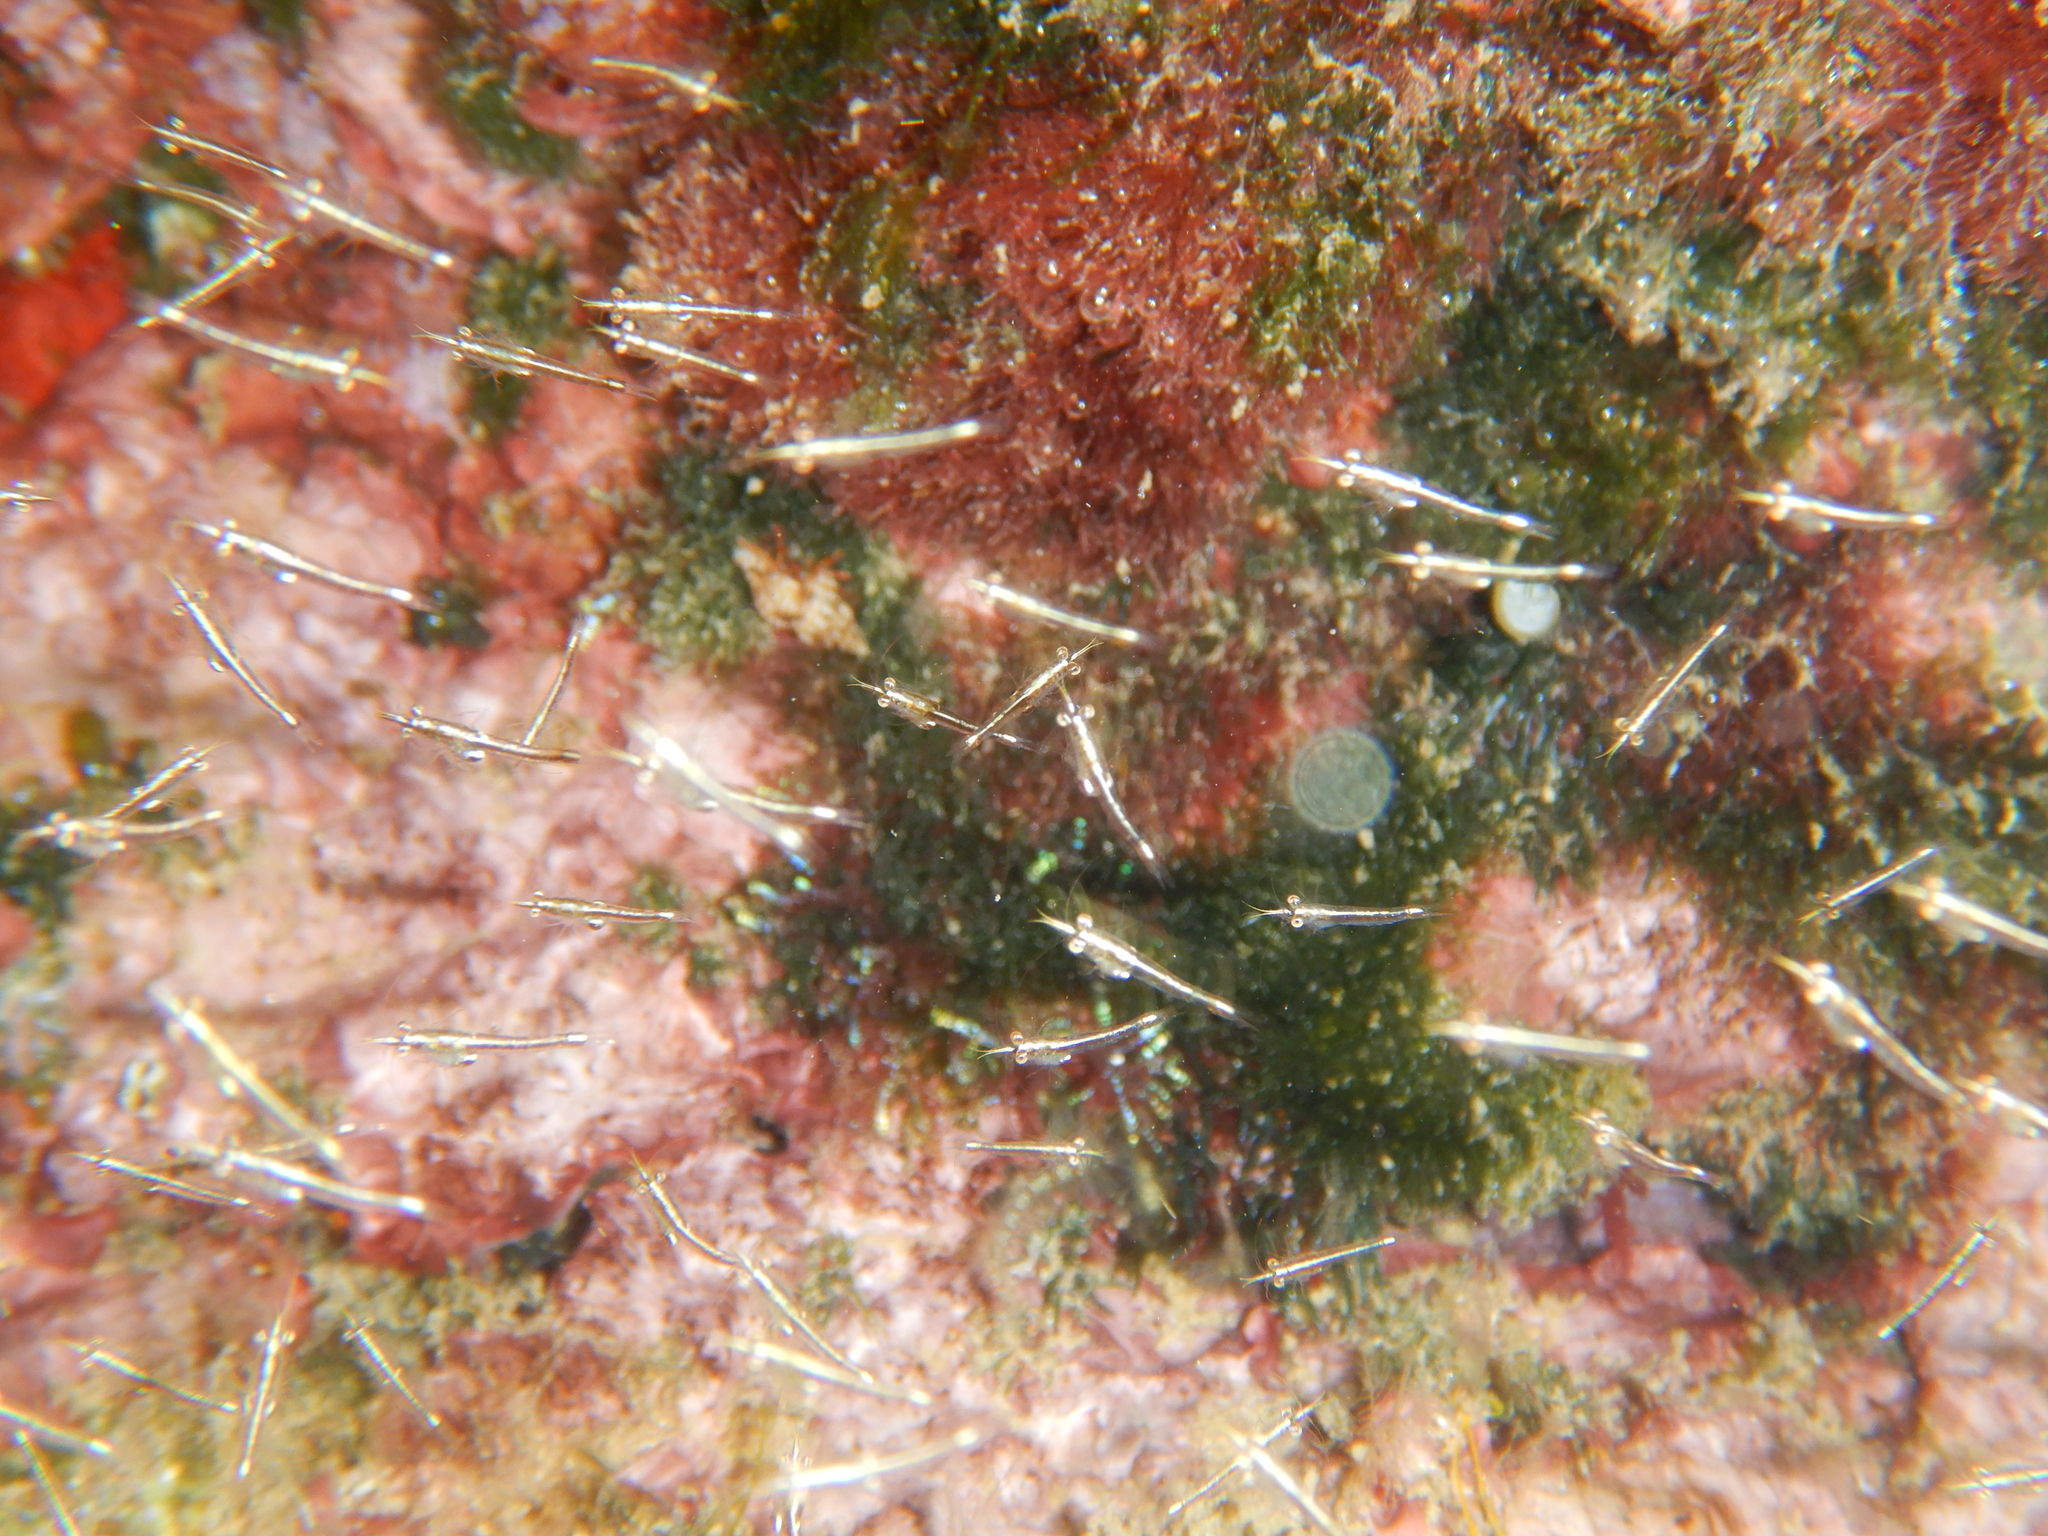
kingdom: Animalia
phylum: Arthropoda
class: Malacostraca
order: Mysida
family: Mysidae
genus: Leptomysis
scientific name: Leptomysis mediterranea
